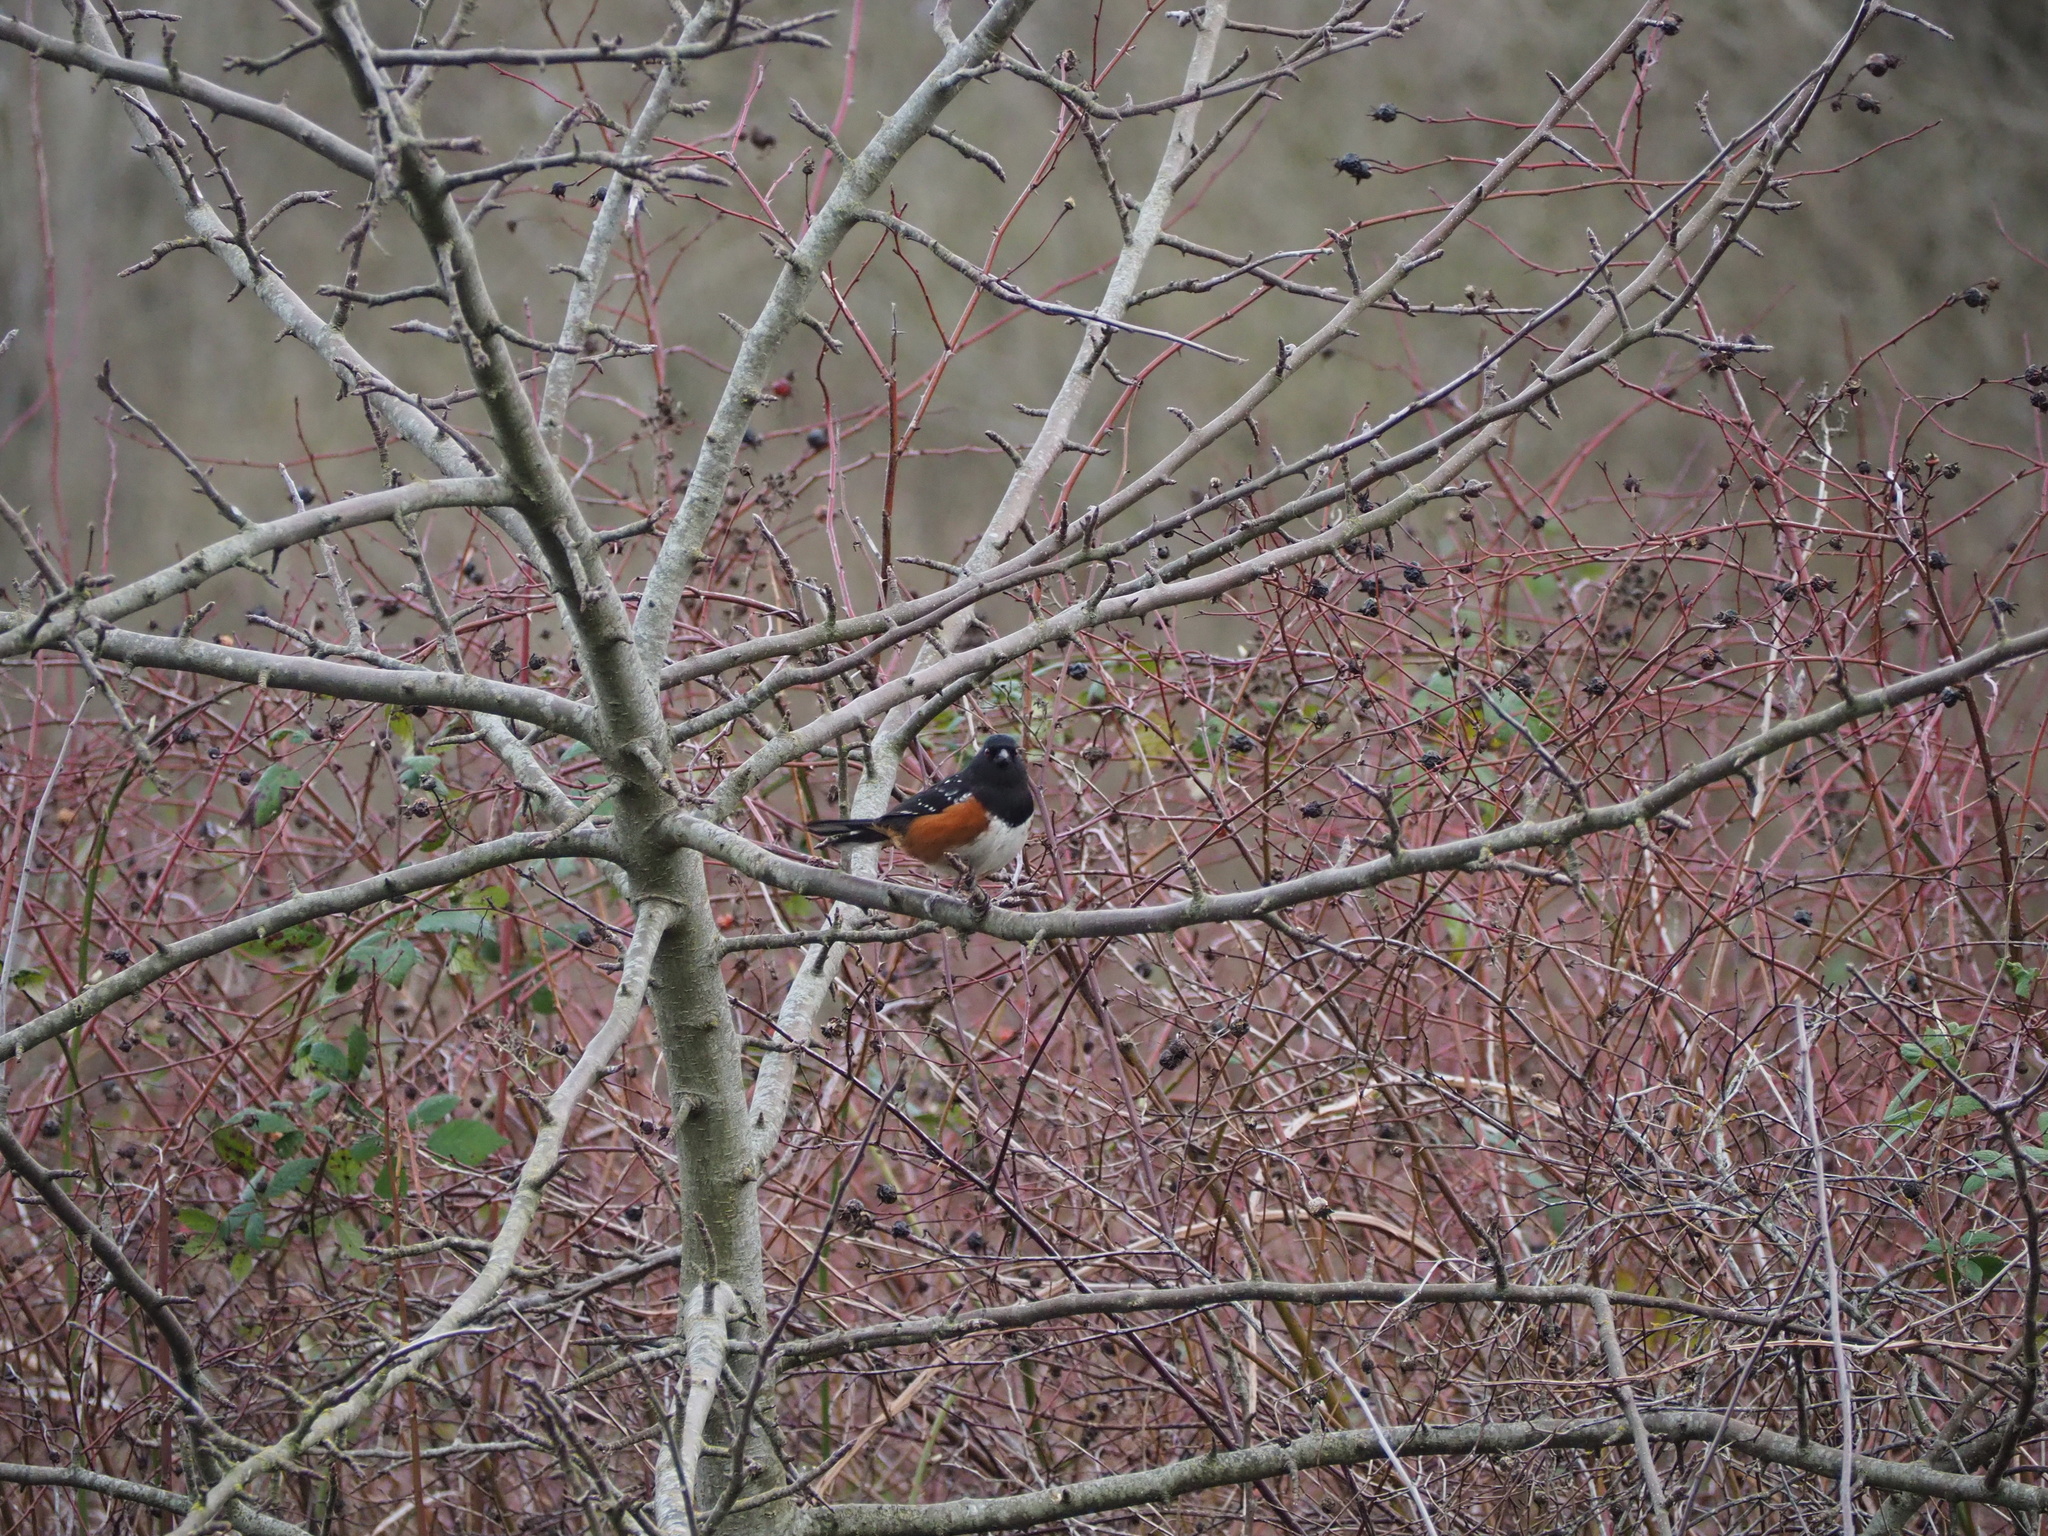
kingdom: Animalia
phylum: Chordata
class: Aves
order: Passeriformes
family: Passerellidae
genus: Pipilo
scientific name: Pipilo maculatus
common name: Spotted towhee
